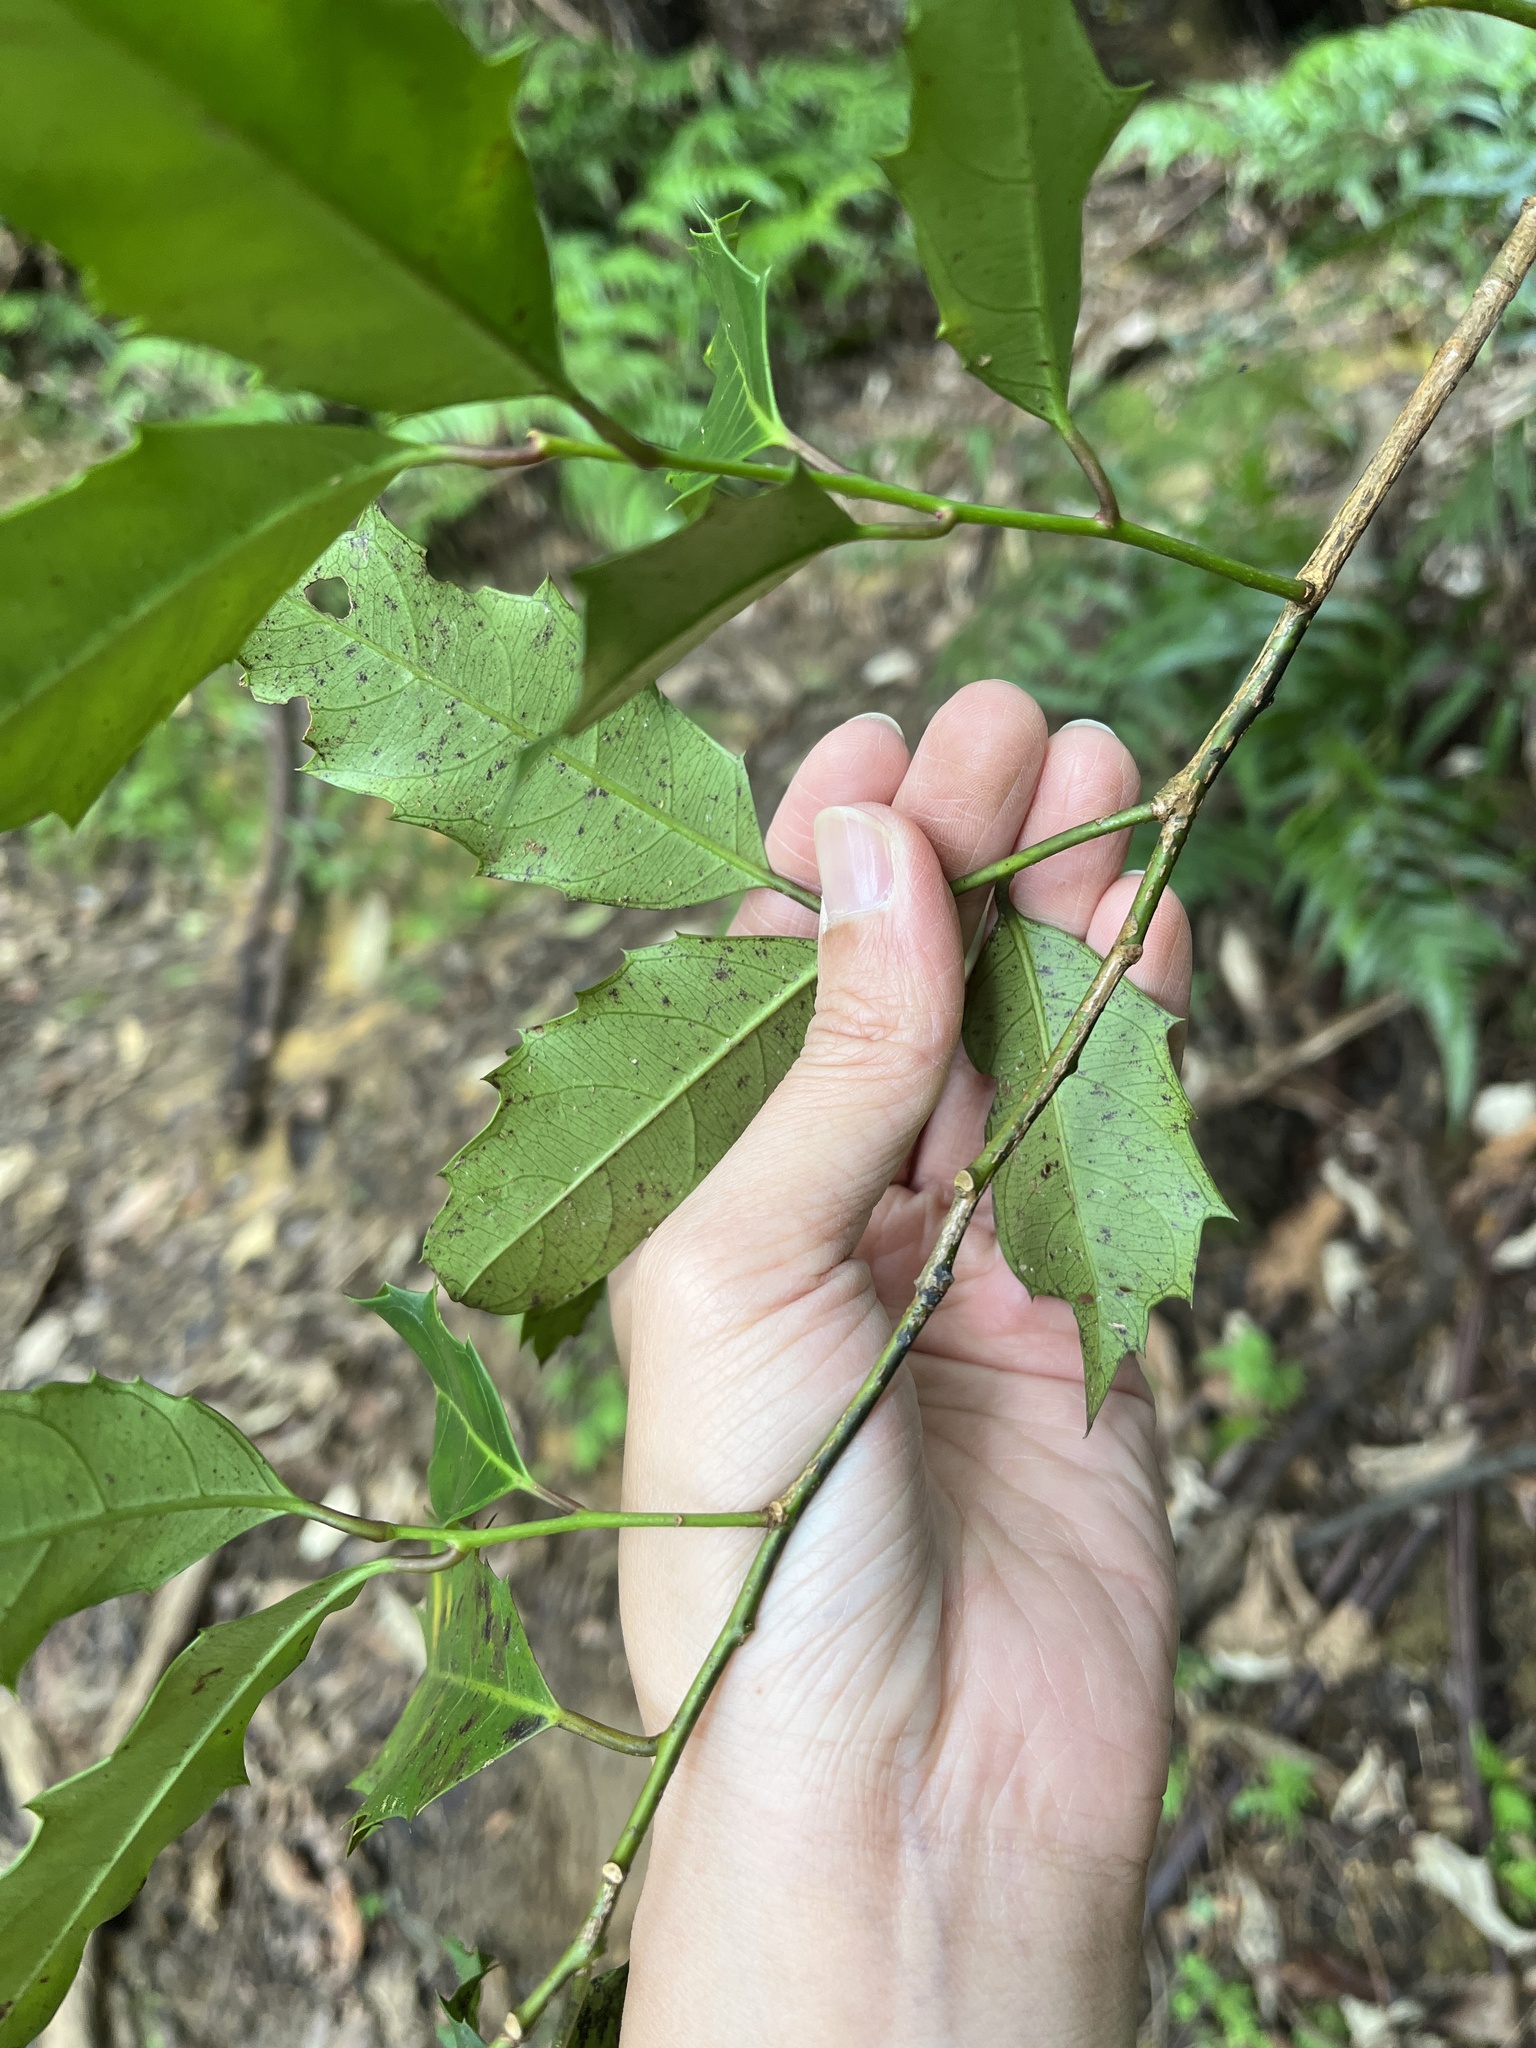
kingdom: Plantae
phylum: Tracheophyta
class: Magnoliopsida
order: Saxifragales
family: Iteaceae
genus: Itea
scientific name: Itea oldhamii
